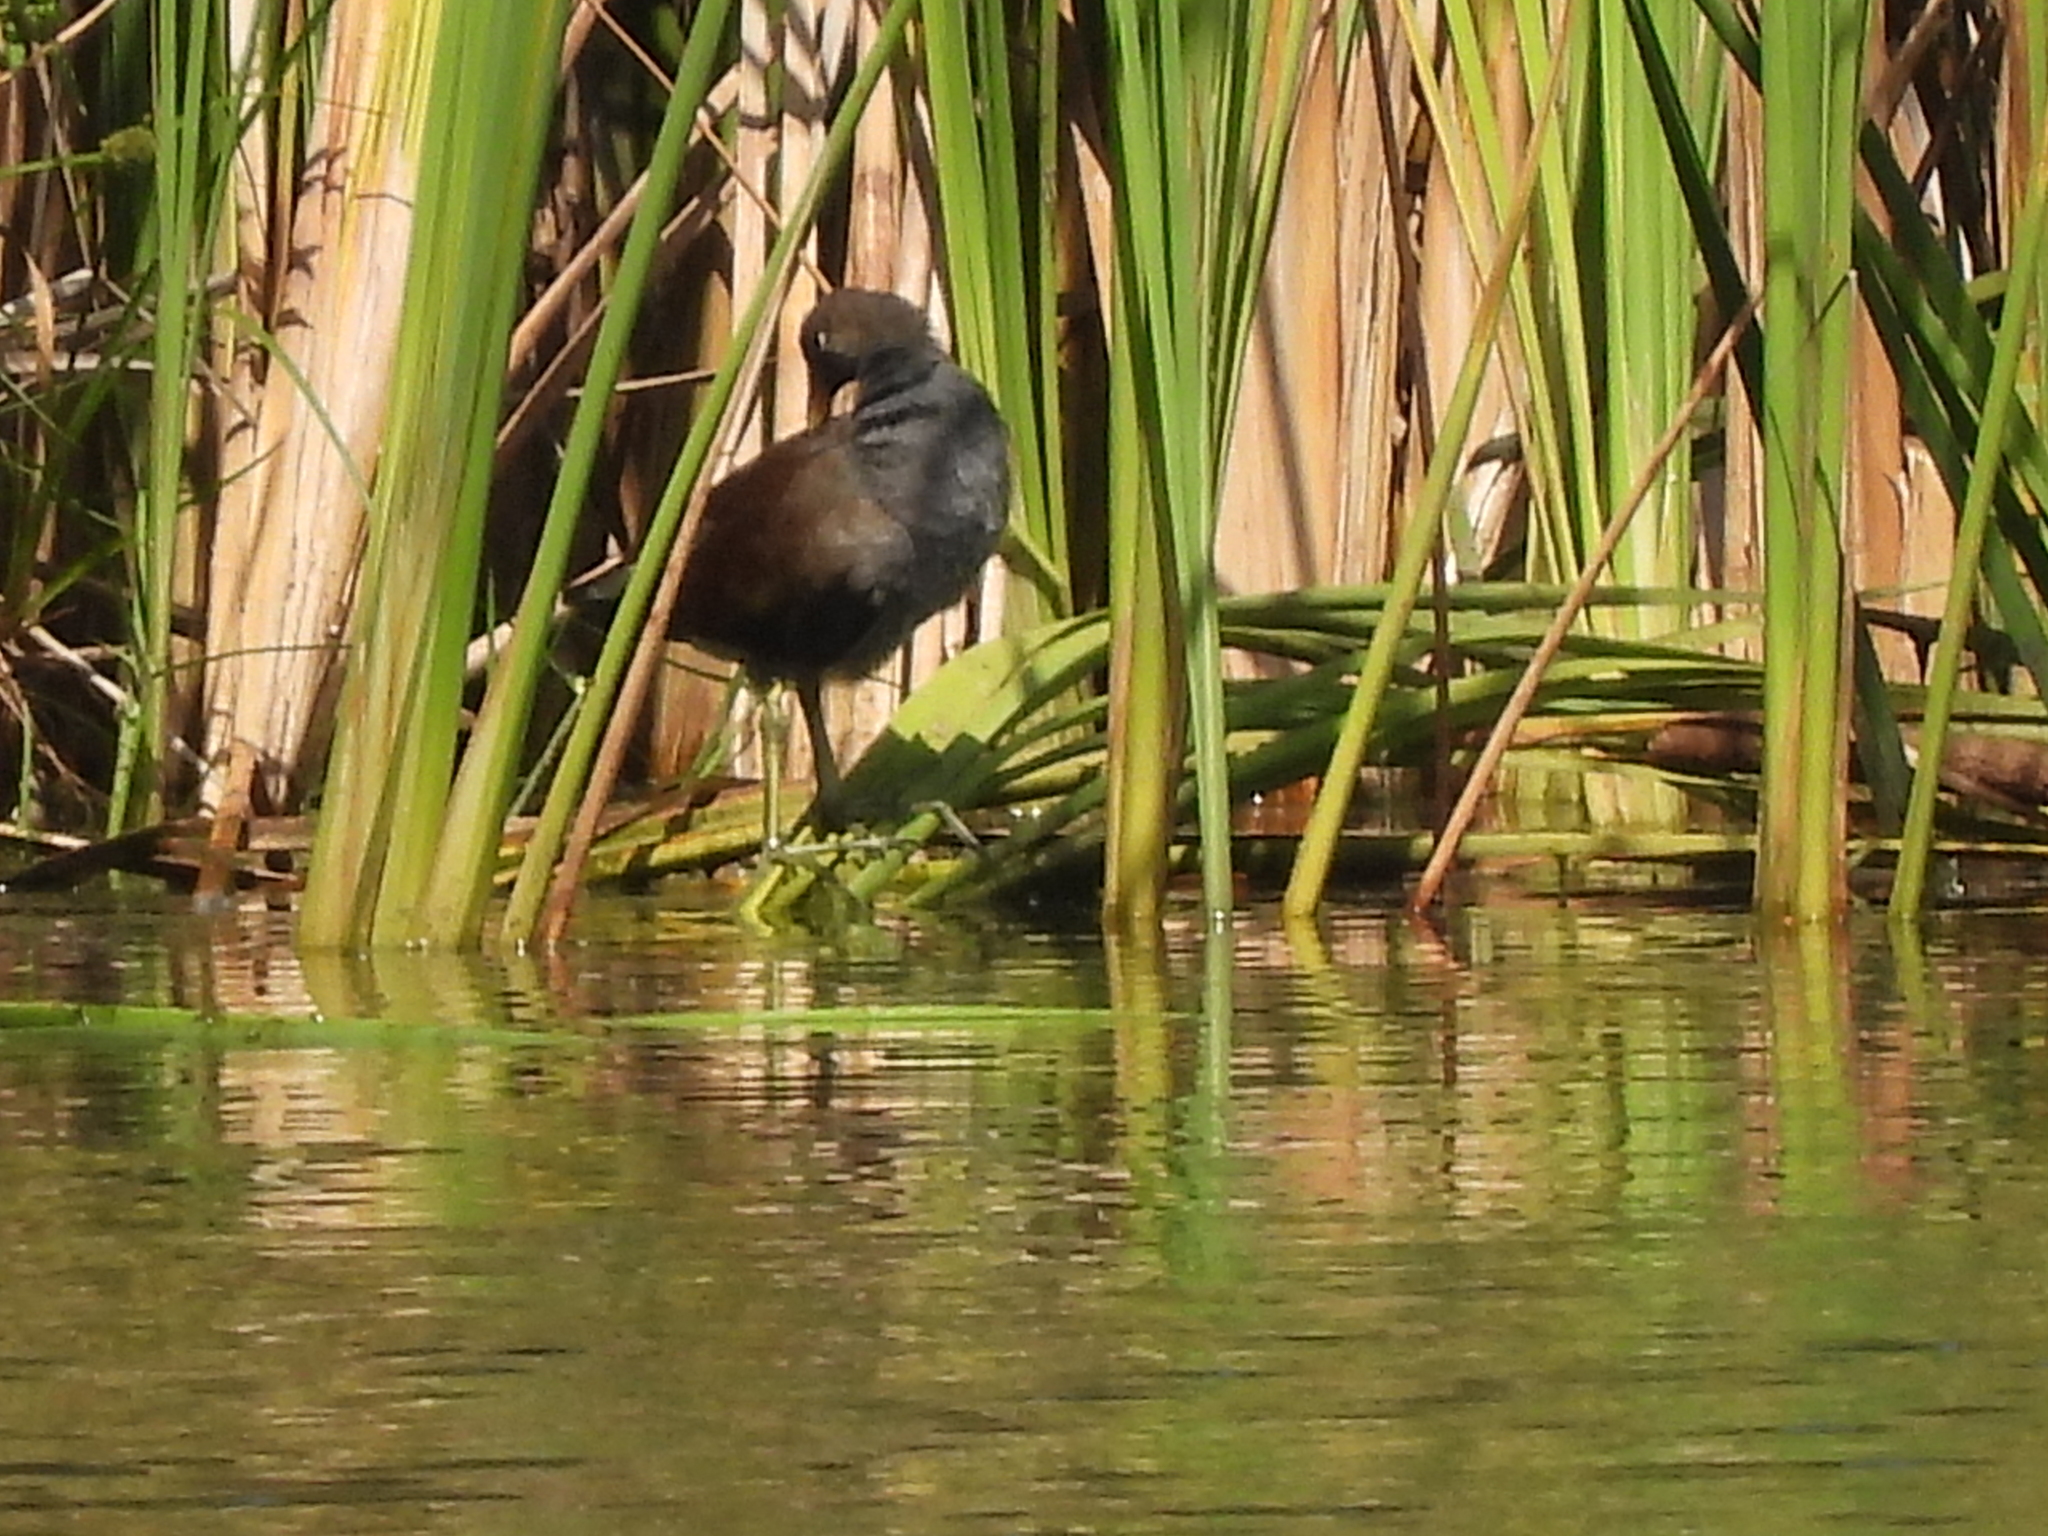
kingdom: Animalia
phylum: Chordata
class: Aves
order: Gruiformes
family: Rallidae
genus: Gallinula
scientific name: Gallinula chloropus
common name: Common moorhen
